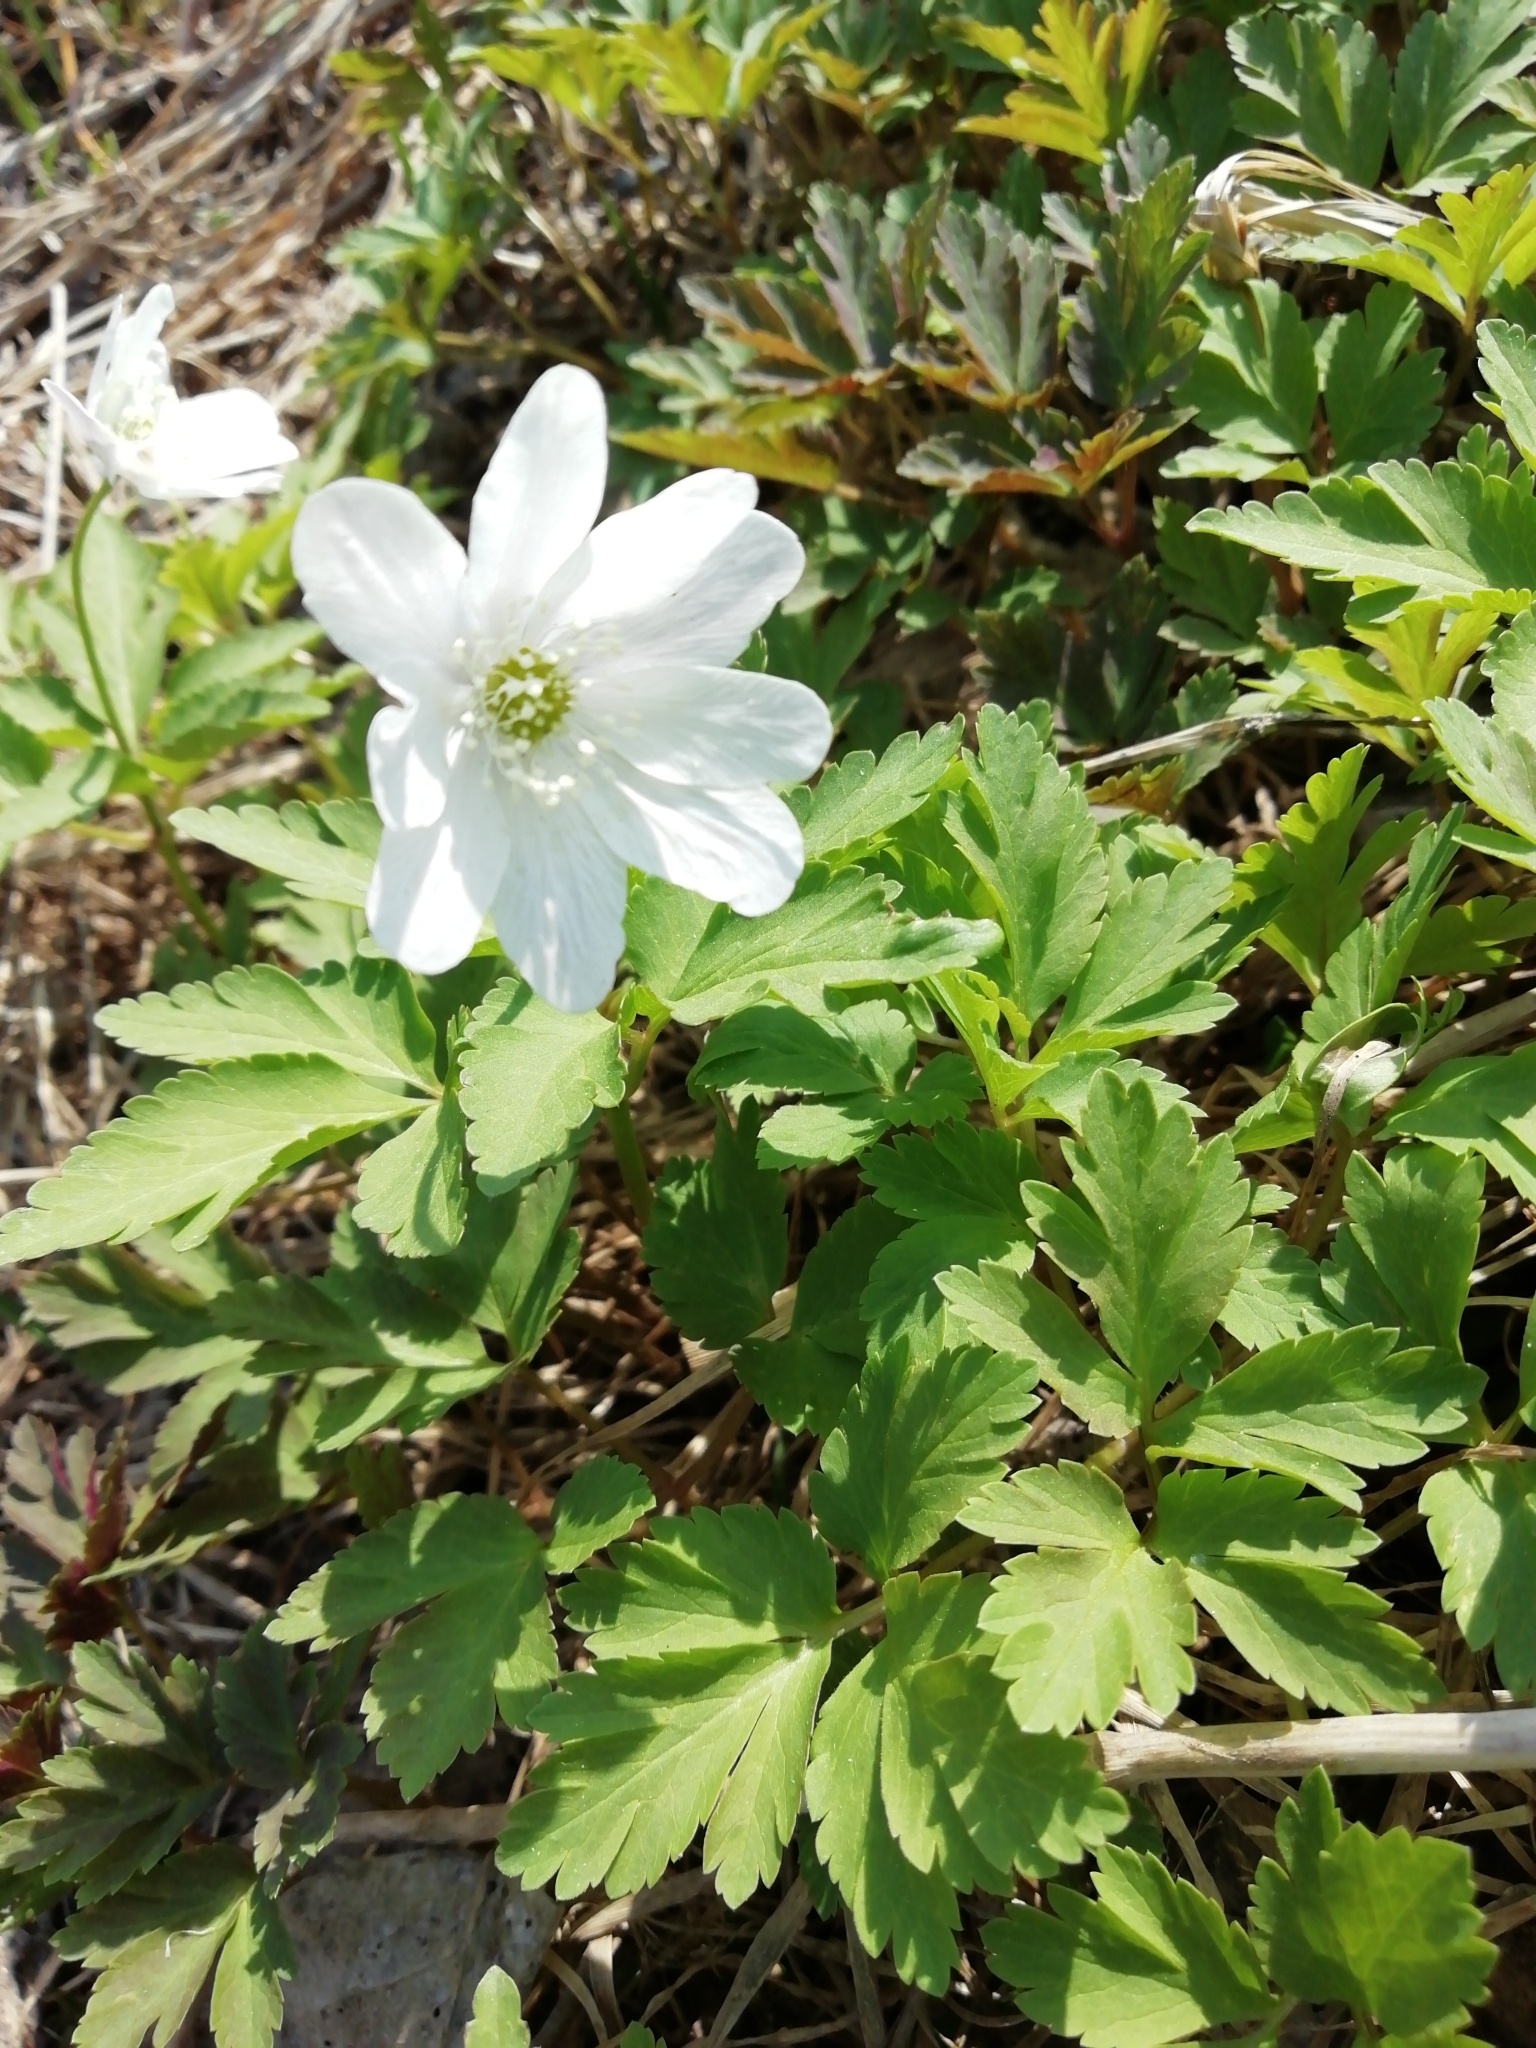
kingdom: Plantae
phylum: Tracheophyta
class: Magnoliopsida
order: Ranunculales
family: Ranunculaceae
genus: Anemone
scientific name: Anemone altaica
